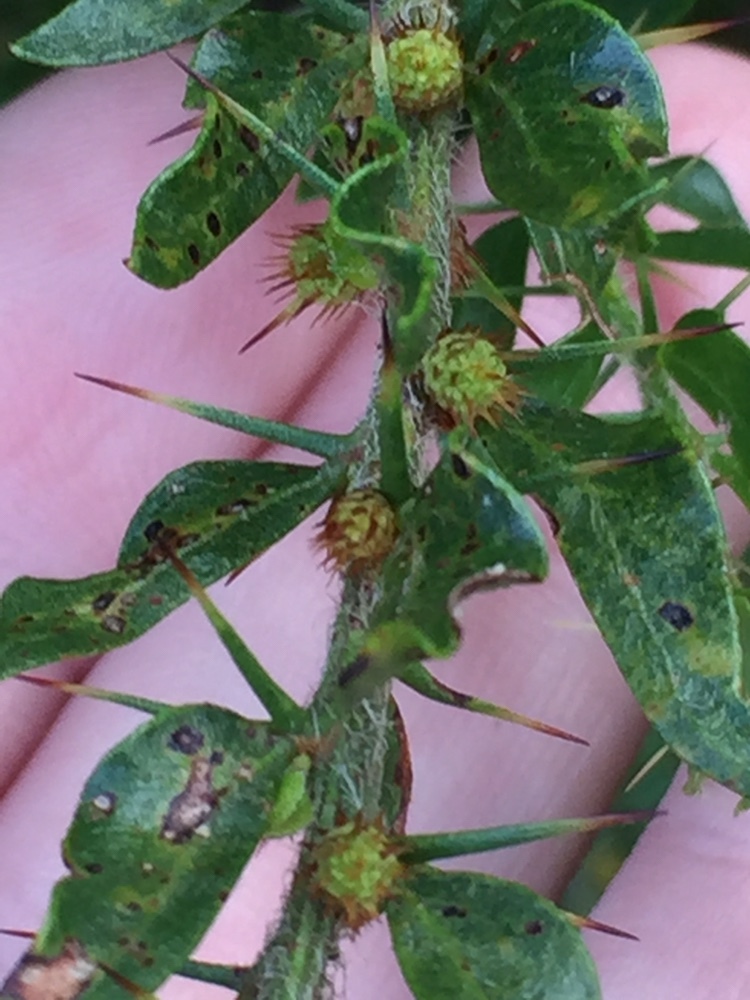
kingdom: Plantae
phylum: Tracheophyta
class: Magnoliopsida
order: Fabales
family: Fabaceae
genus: Acacia
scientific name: Acacia paradoxa
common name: Paradox acacia
